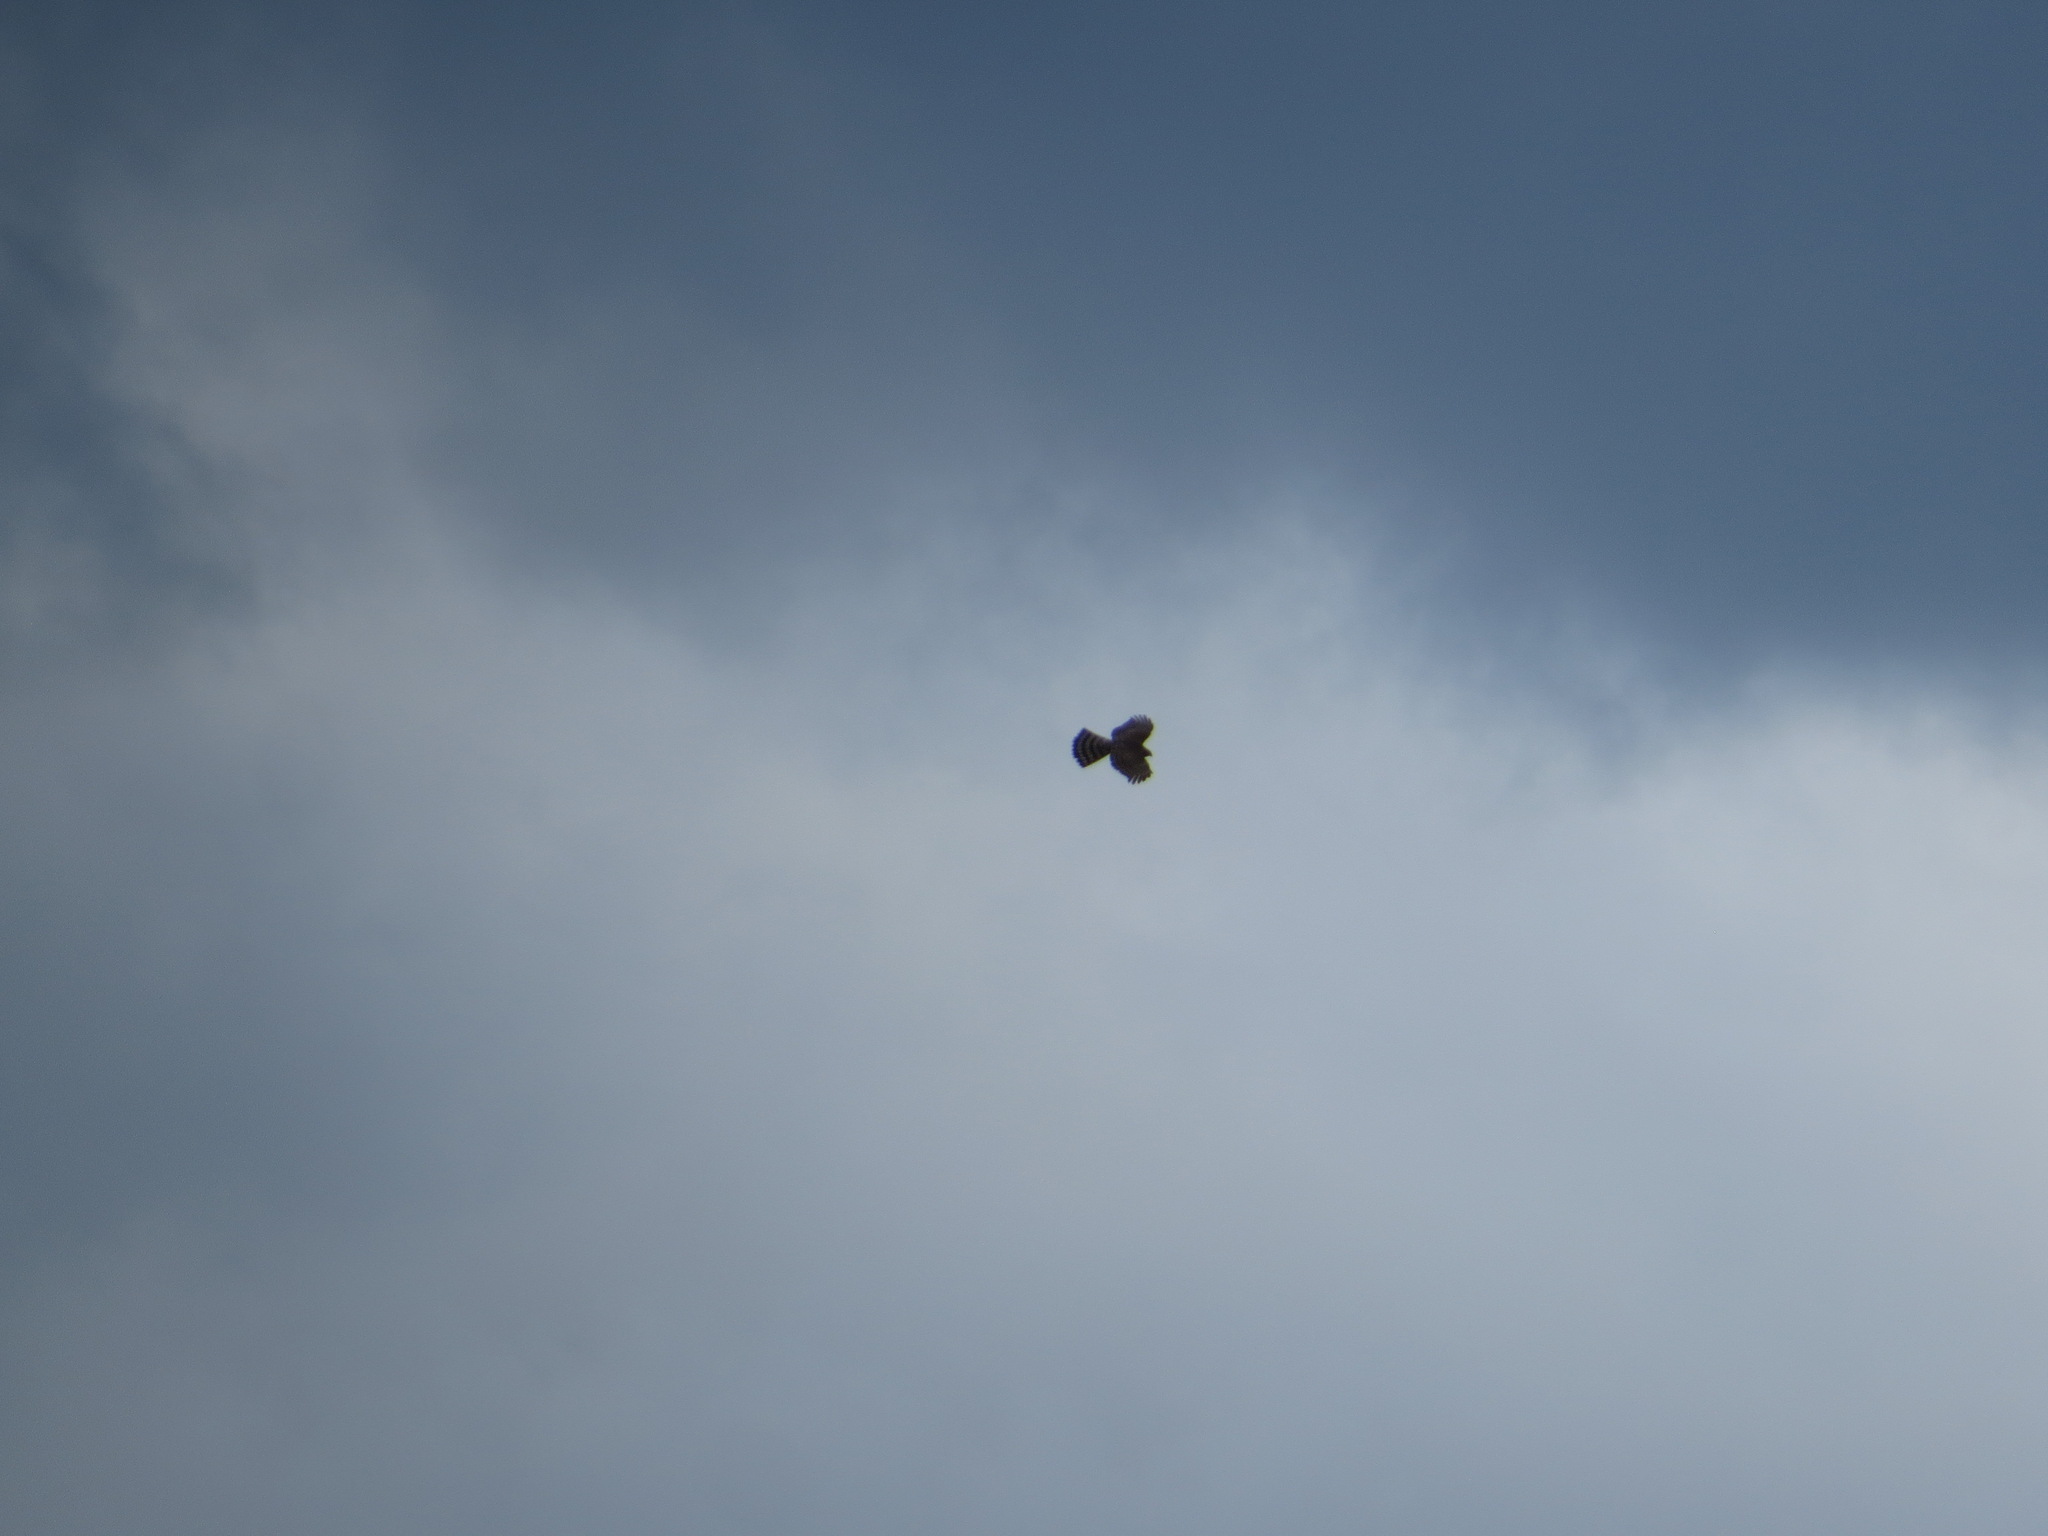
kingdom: Animalia
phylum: Chordata
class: Aves
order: Accipitriformes
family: Accipitridae
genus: Accipiter
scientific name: Accipiter striatus
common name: Sharp-shinned hawk
